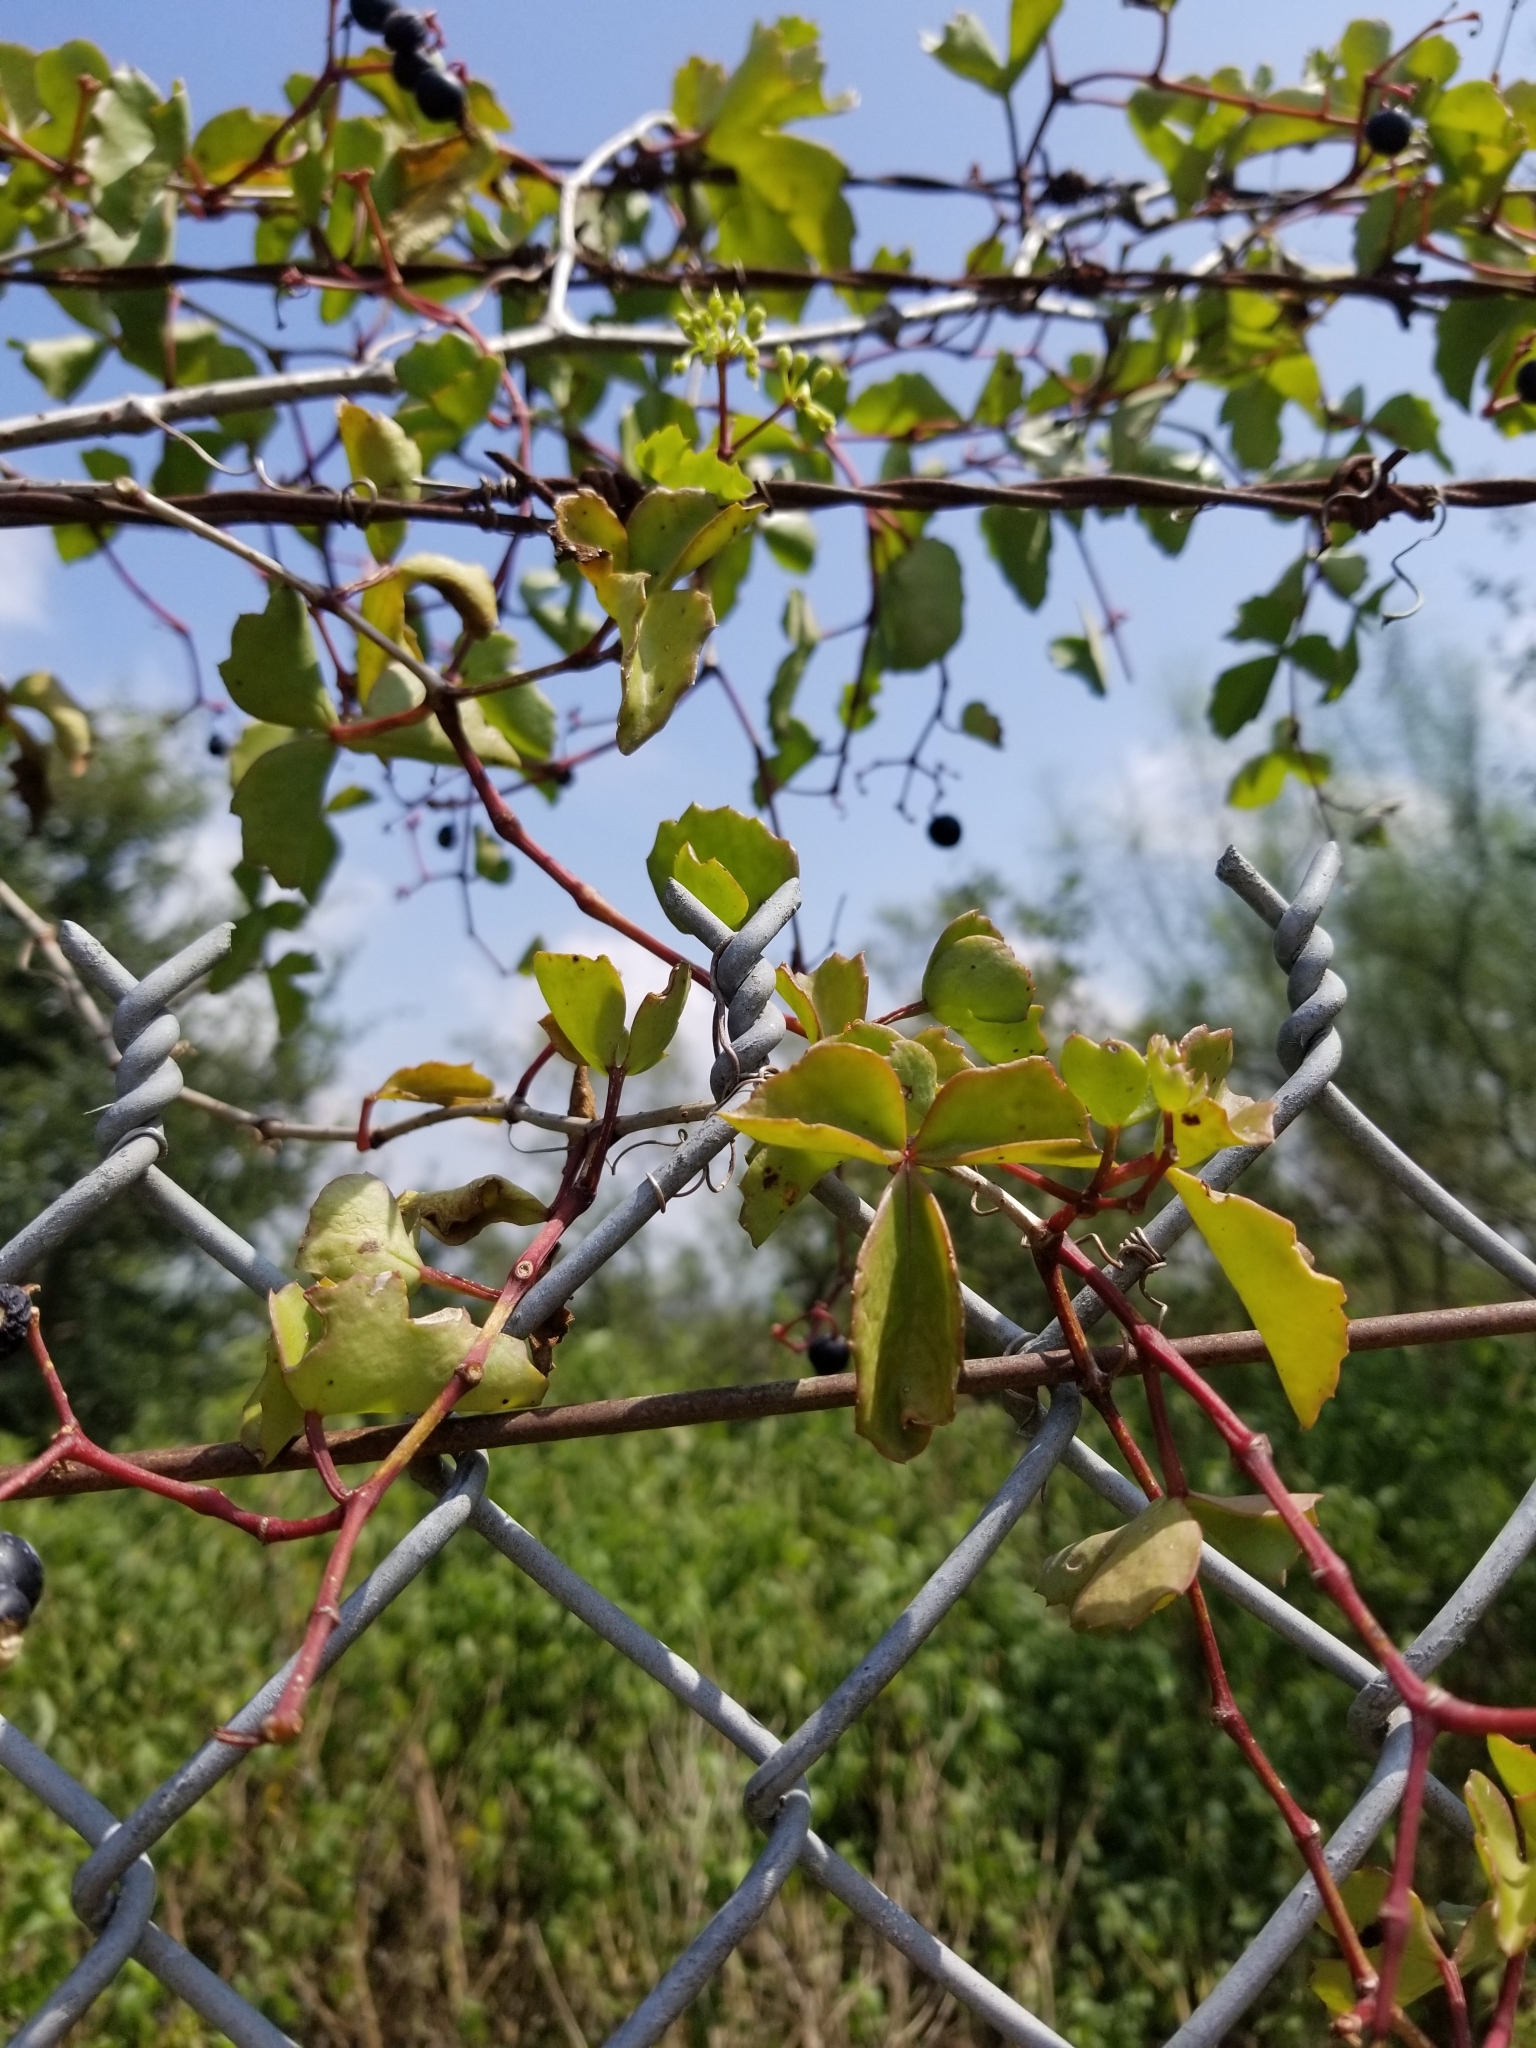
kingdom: Plantae
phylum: Tracheophyta
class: Magnoliopsida
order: Vitales
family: Vitaceae
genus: Cissus
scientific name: Cissus trifoliata
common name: Vine-sorrel
